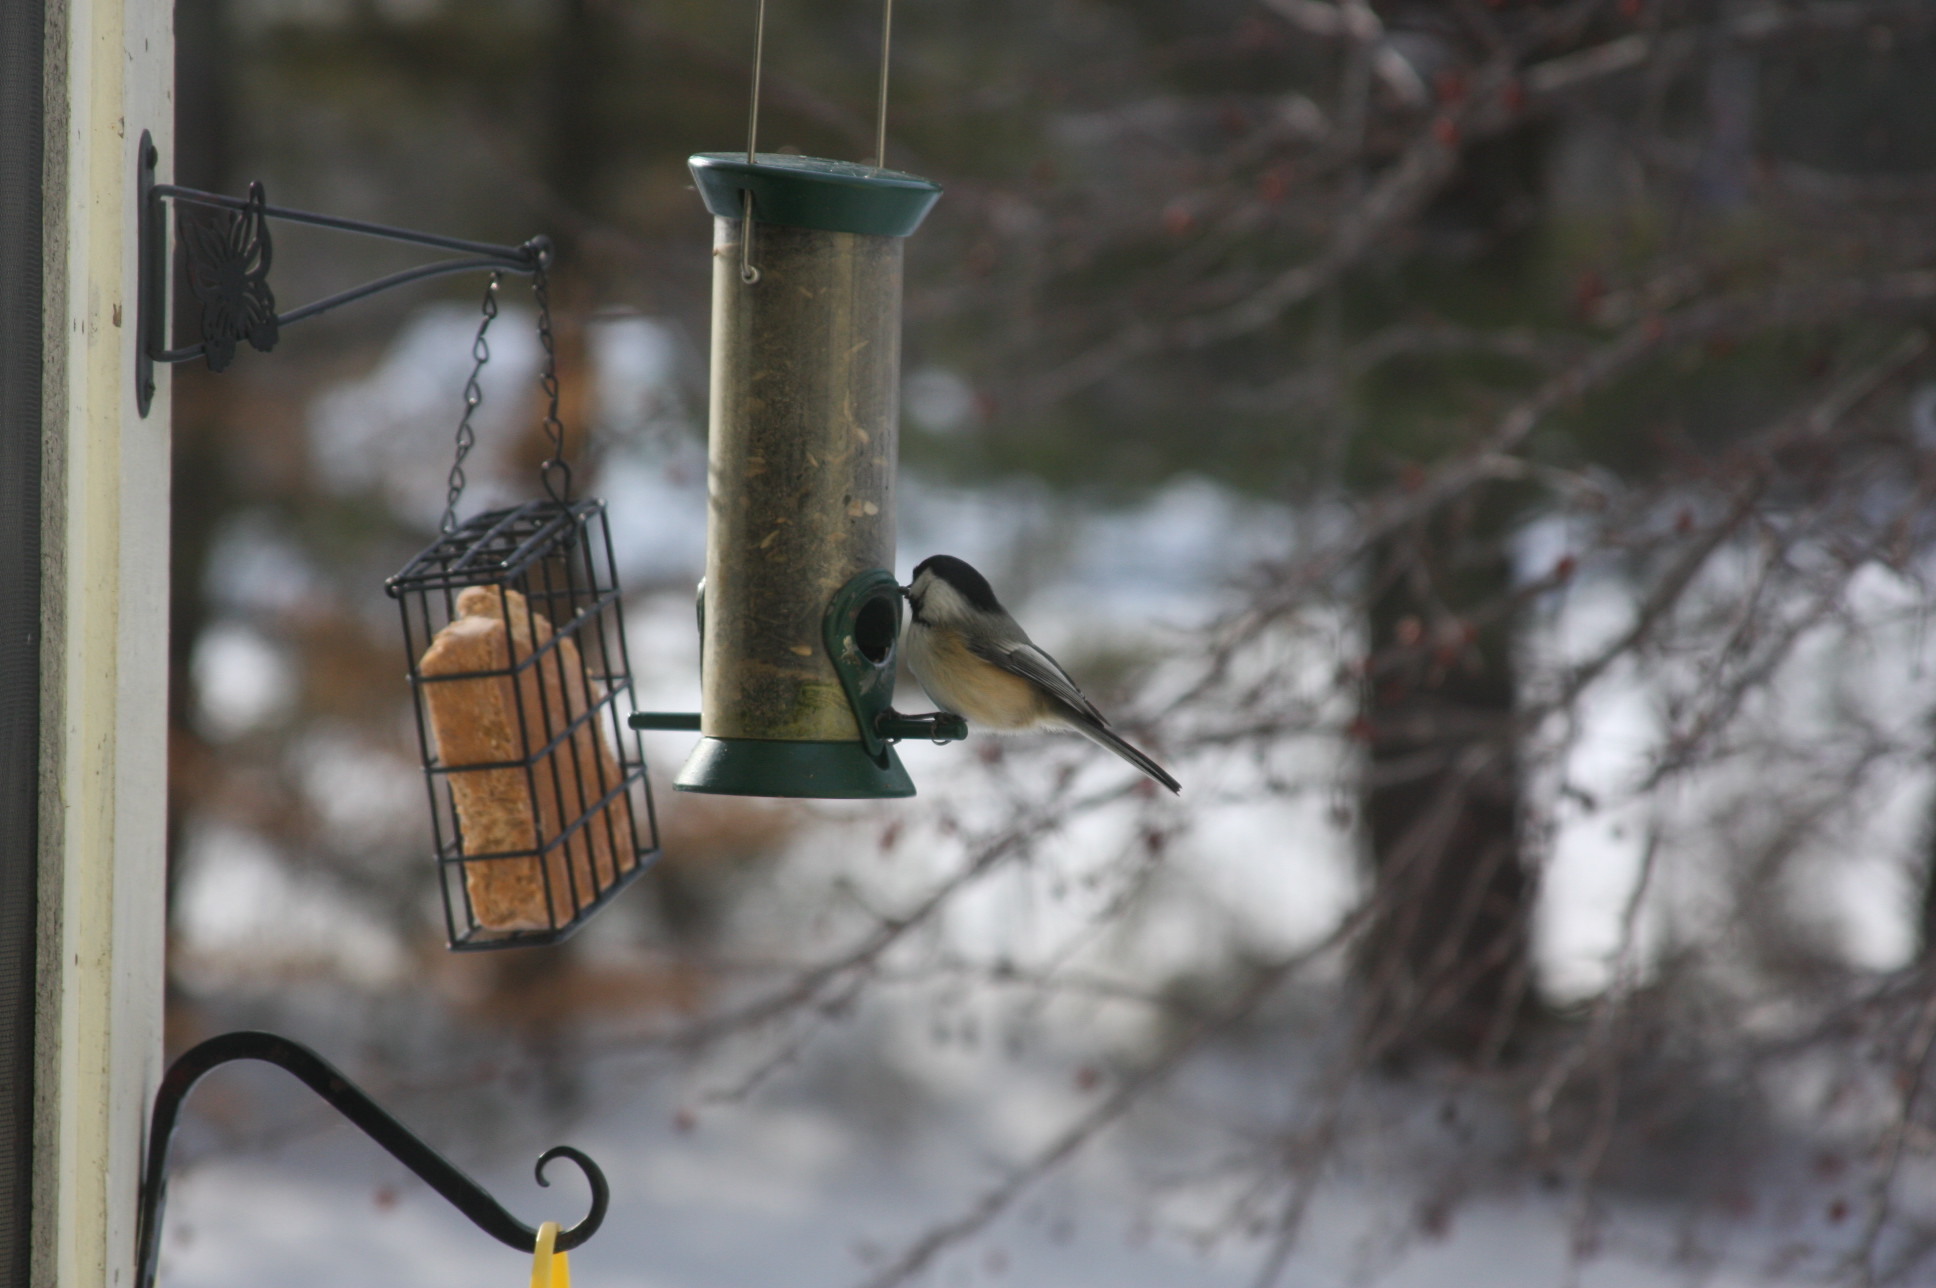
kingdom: Animalia
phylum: Chordata
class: Aves
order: Passeriformes
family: Paridae
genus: Poecile
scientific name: Poecile atricapillus
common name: Black-capped chickadee
